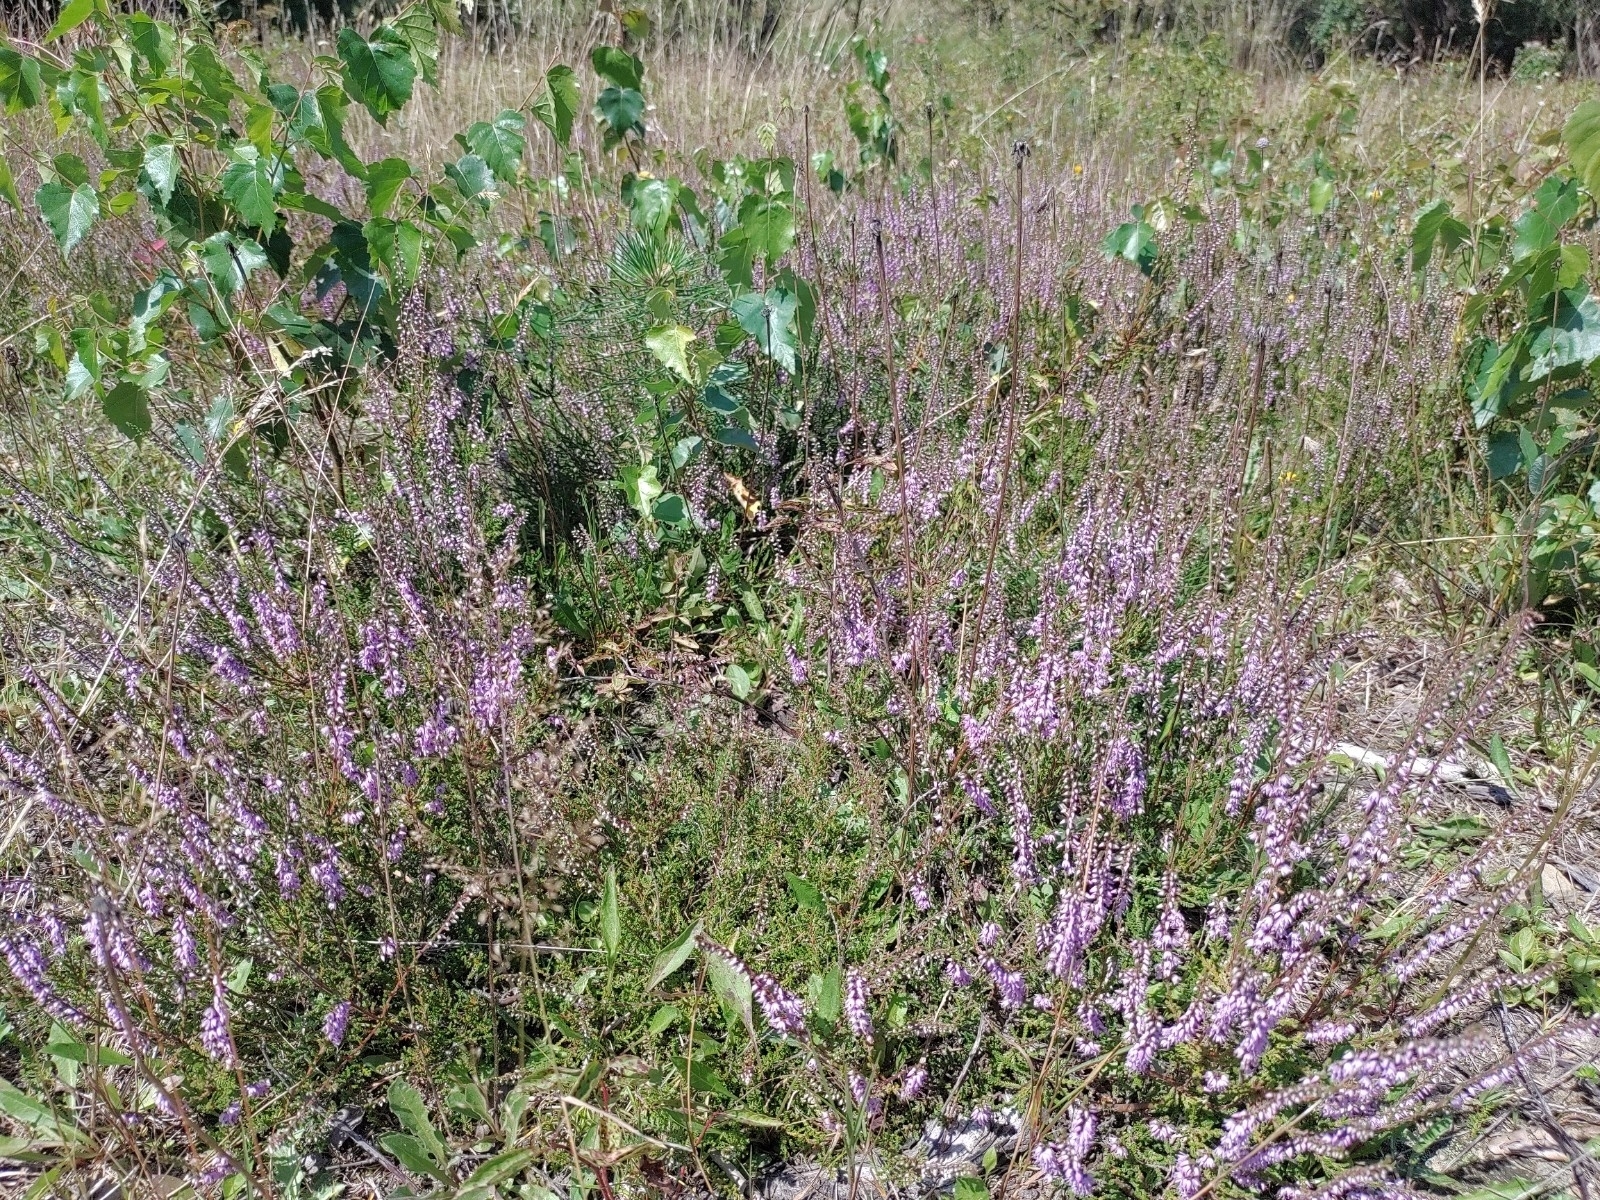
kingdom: Plantae
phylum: Tracheophyta
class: Magnoliopsida
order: Ericales
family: Ericaceae
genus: Calluna
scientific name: Calluna vulgaris
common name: Heather
